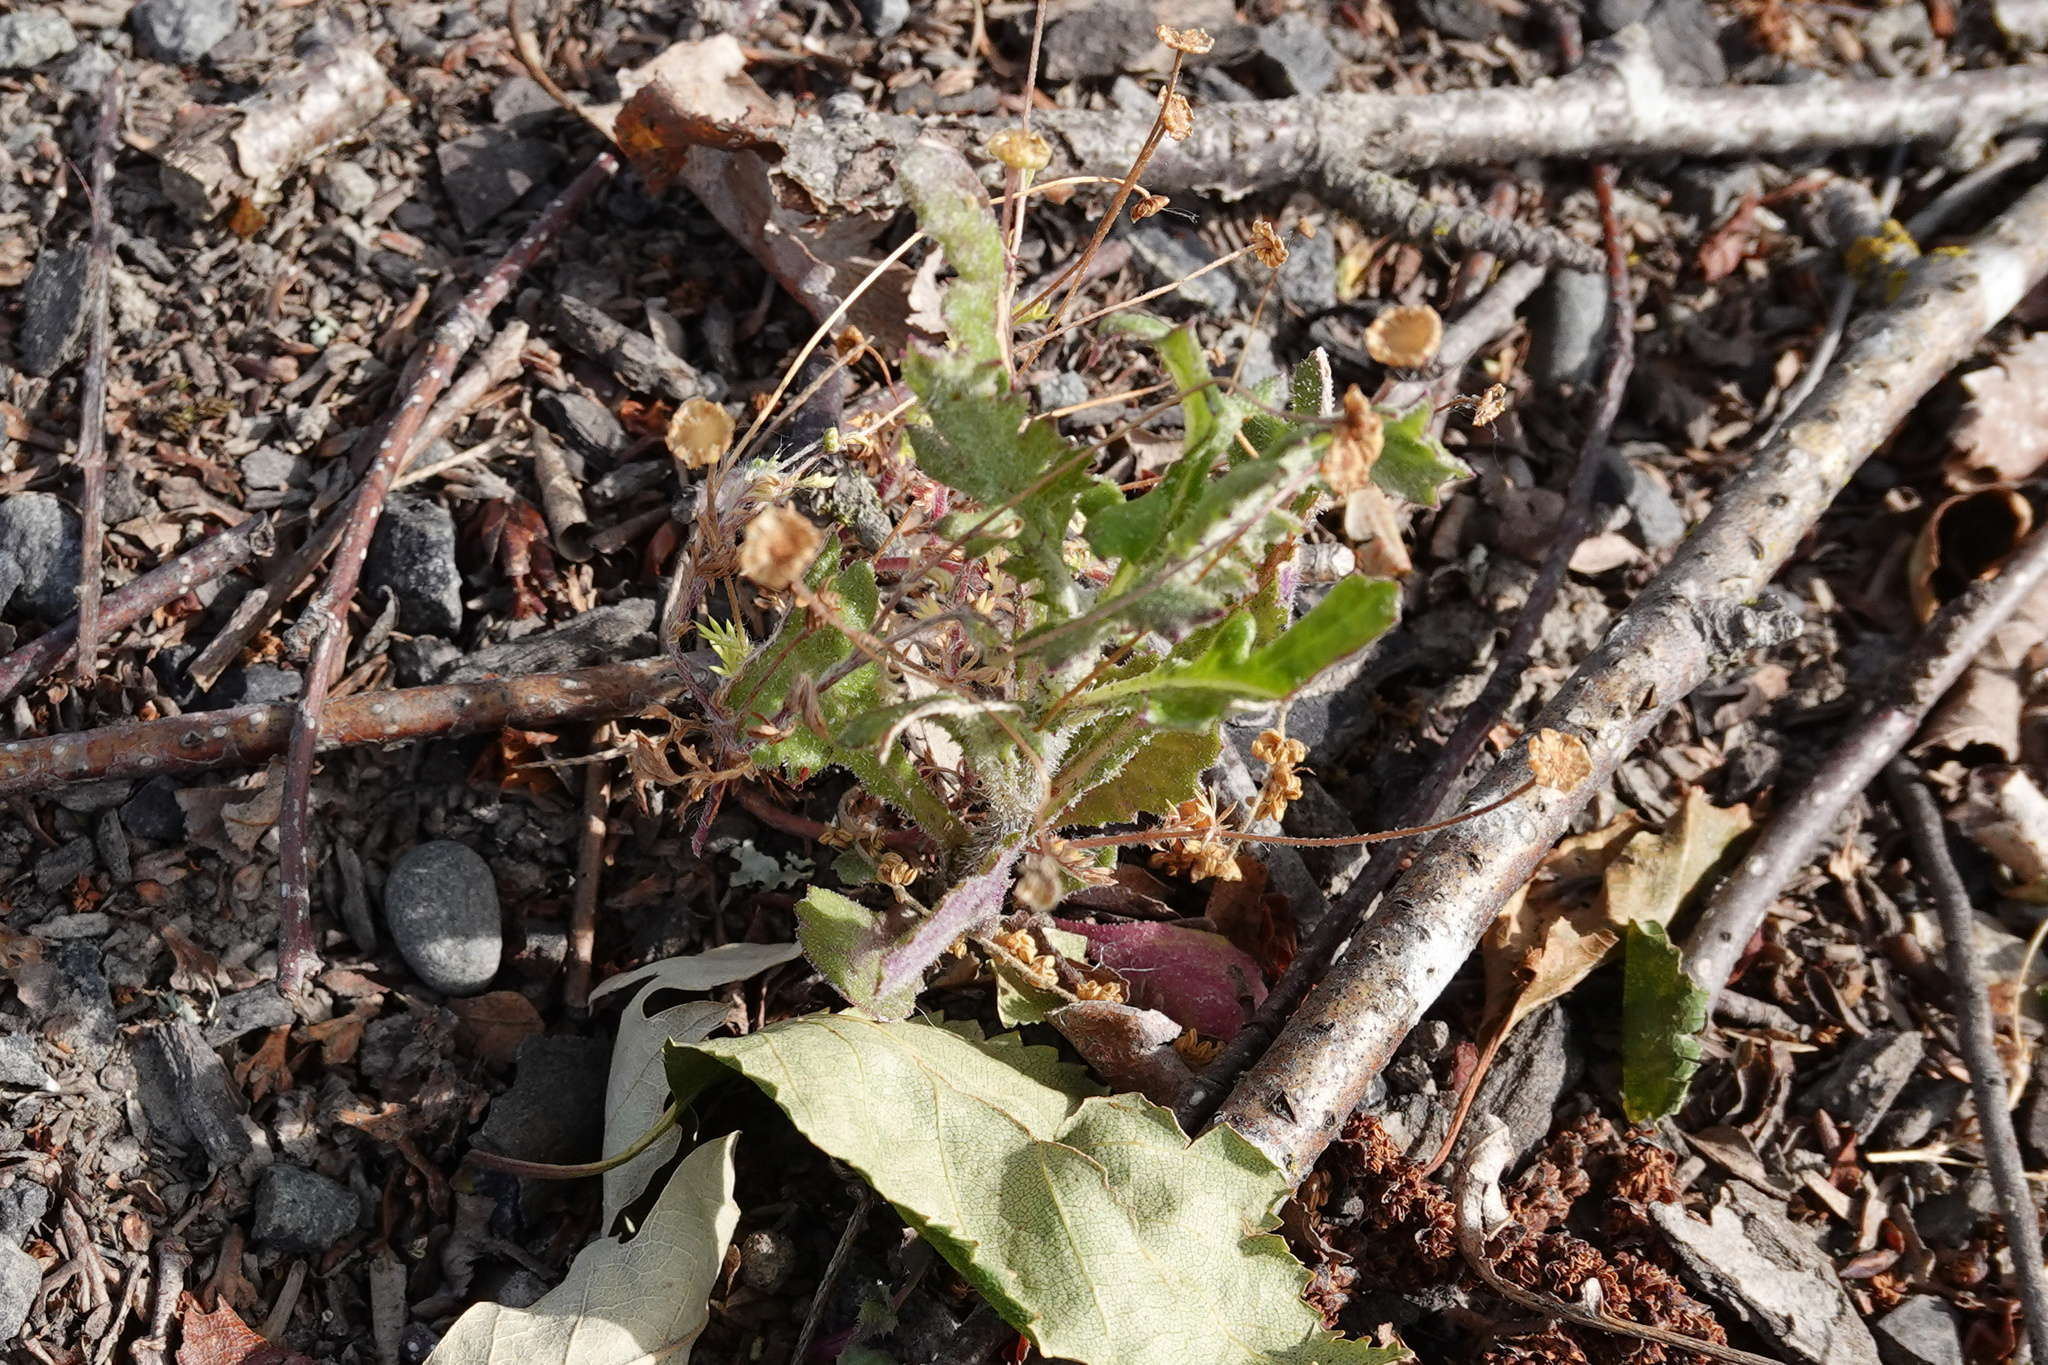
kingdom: Plantae
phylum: Tracheophyta
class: Magnoliopsida
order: Asterales
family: Asteraceae
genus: Senecio
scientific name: Senecio glomeratus
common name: Cutleaf burnweed
